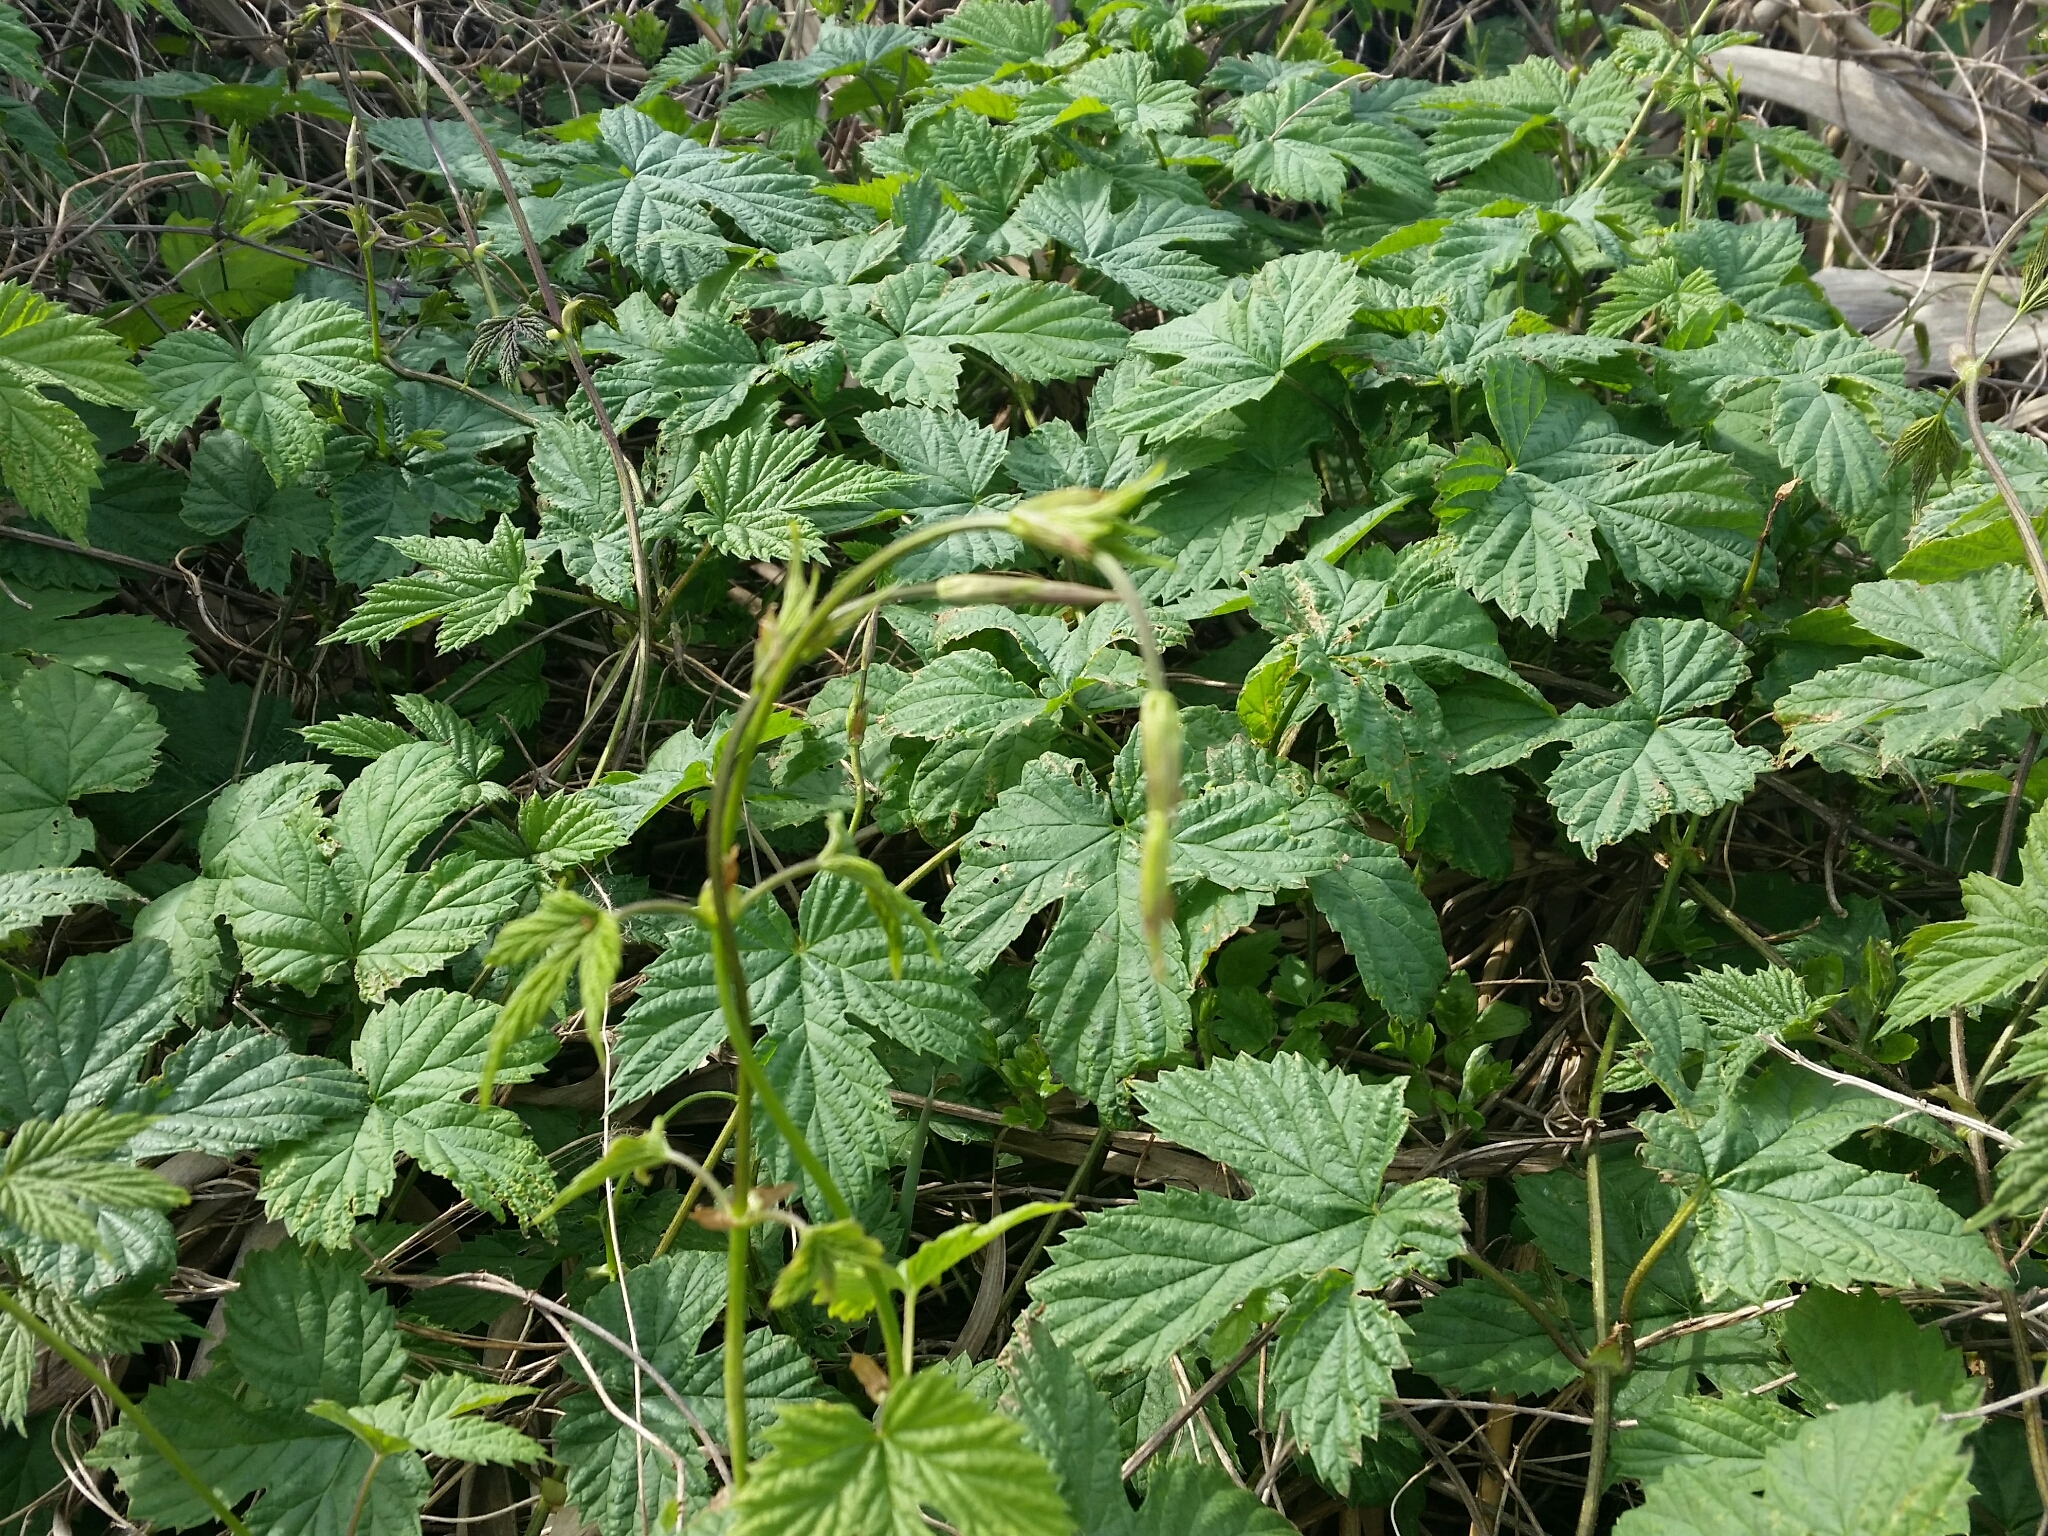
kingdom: Plantae
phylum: Tracheophyta
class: Magnoliopsida
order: Rosales
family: Cannabaceae
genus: Humulus
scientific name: Humulus lupulus
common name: Hop
